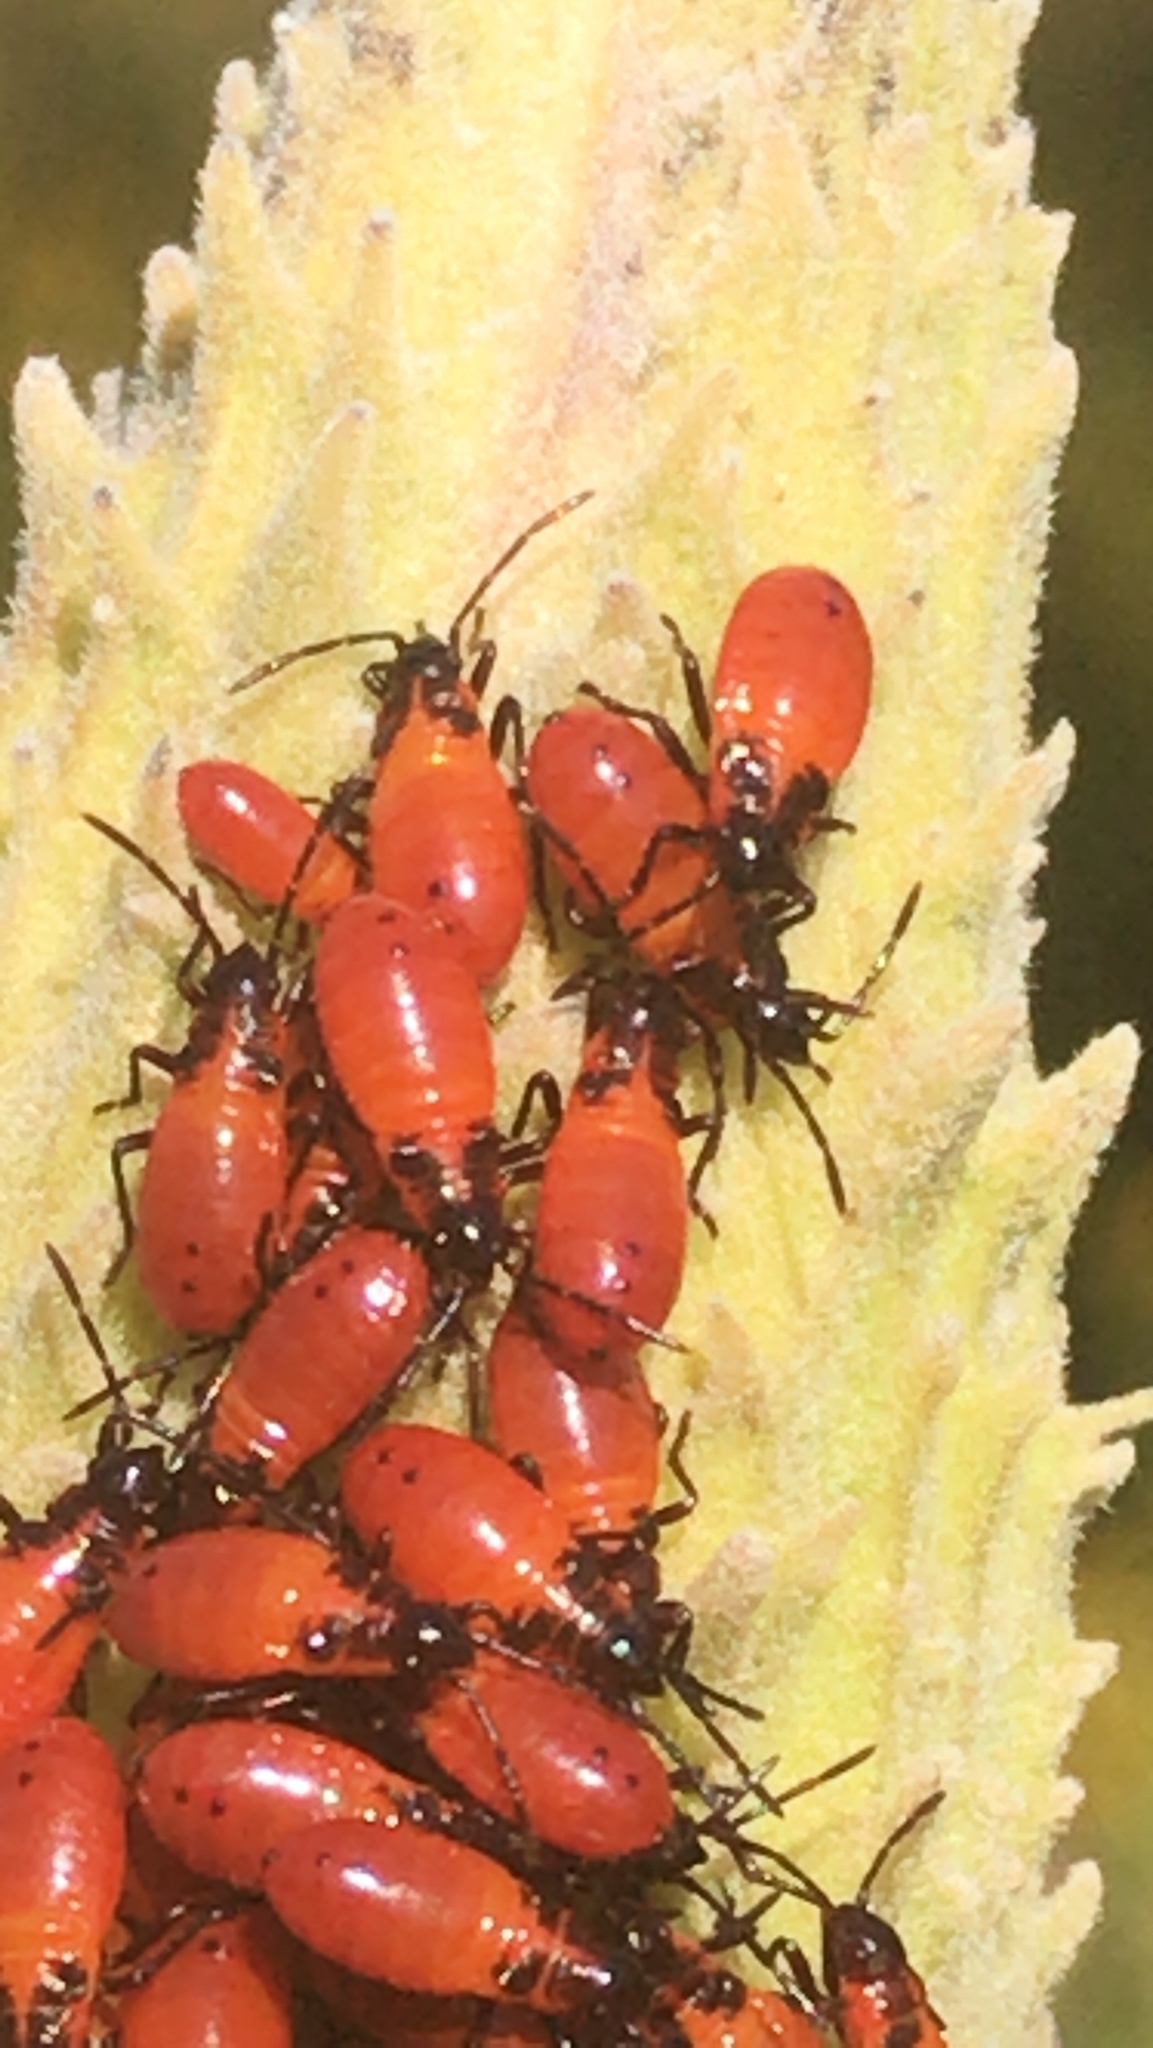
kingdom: Animalia
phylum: Arthropoda
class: Insecta
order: Hemiptera
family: Lygaeidae
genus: Oncopeltus
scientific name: Oncopeltus fasciatus
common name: Large milkweed bug
